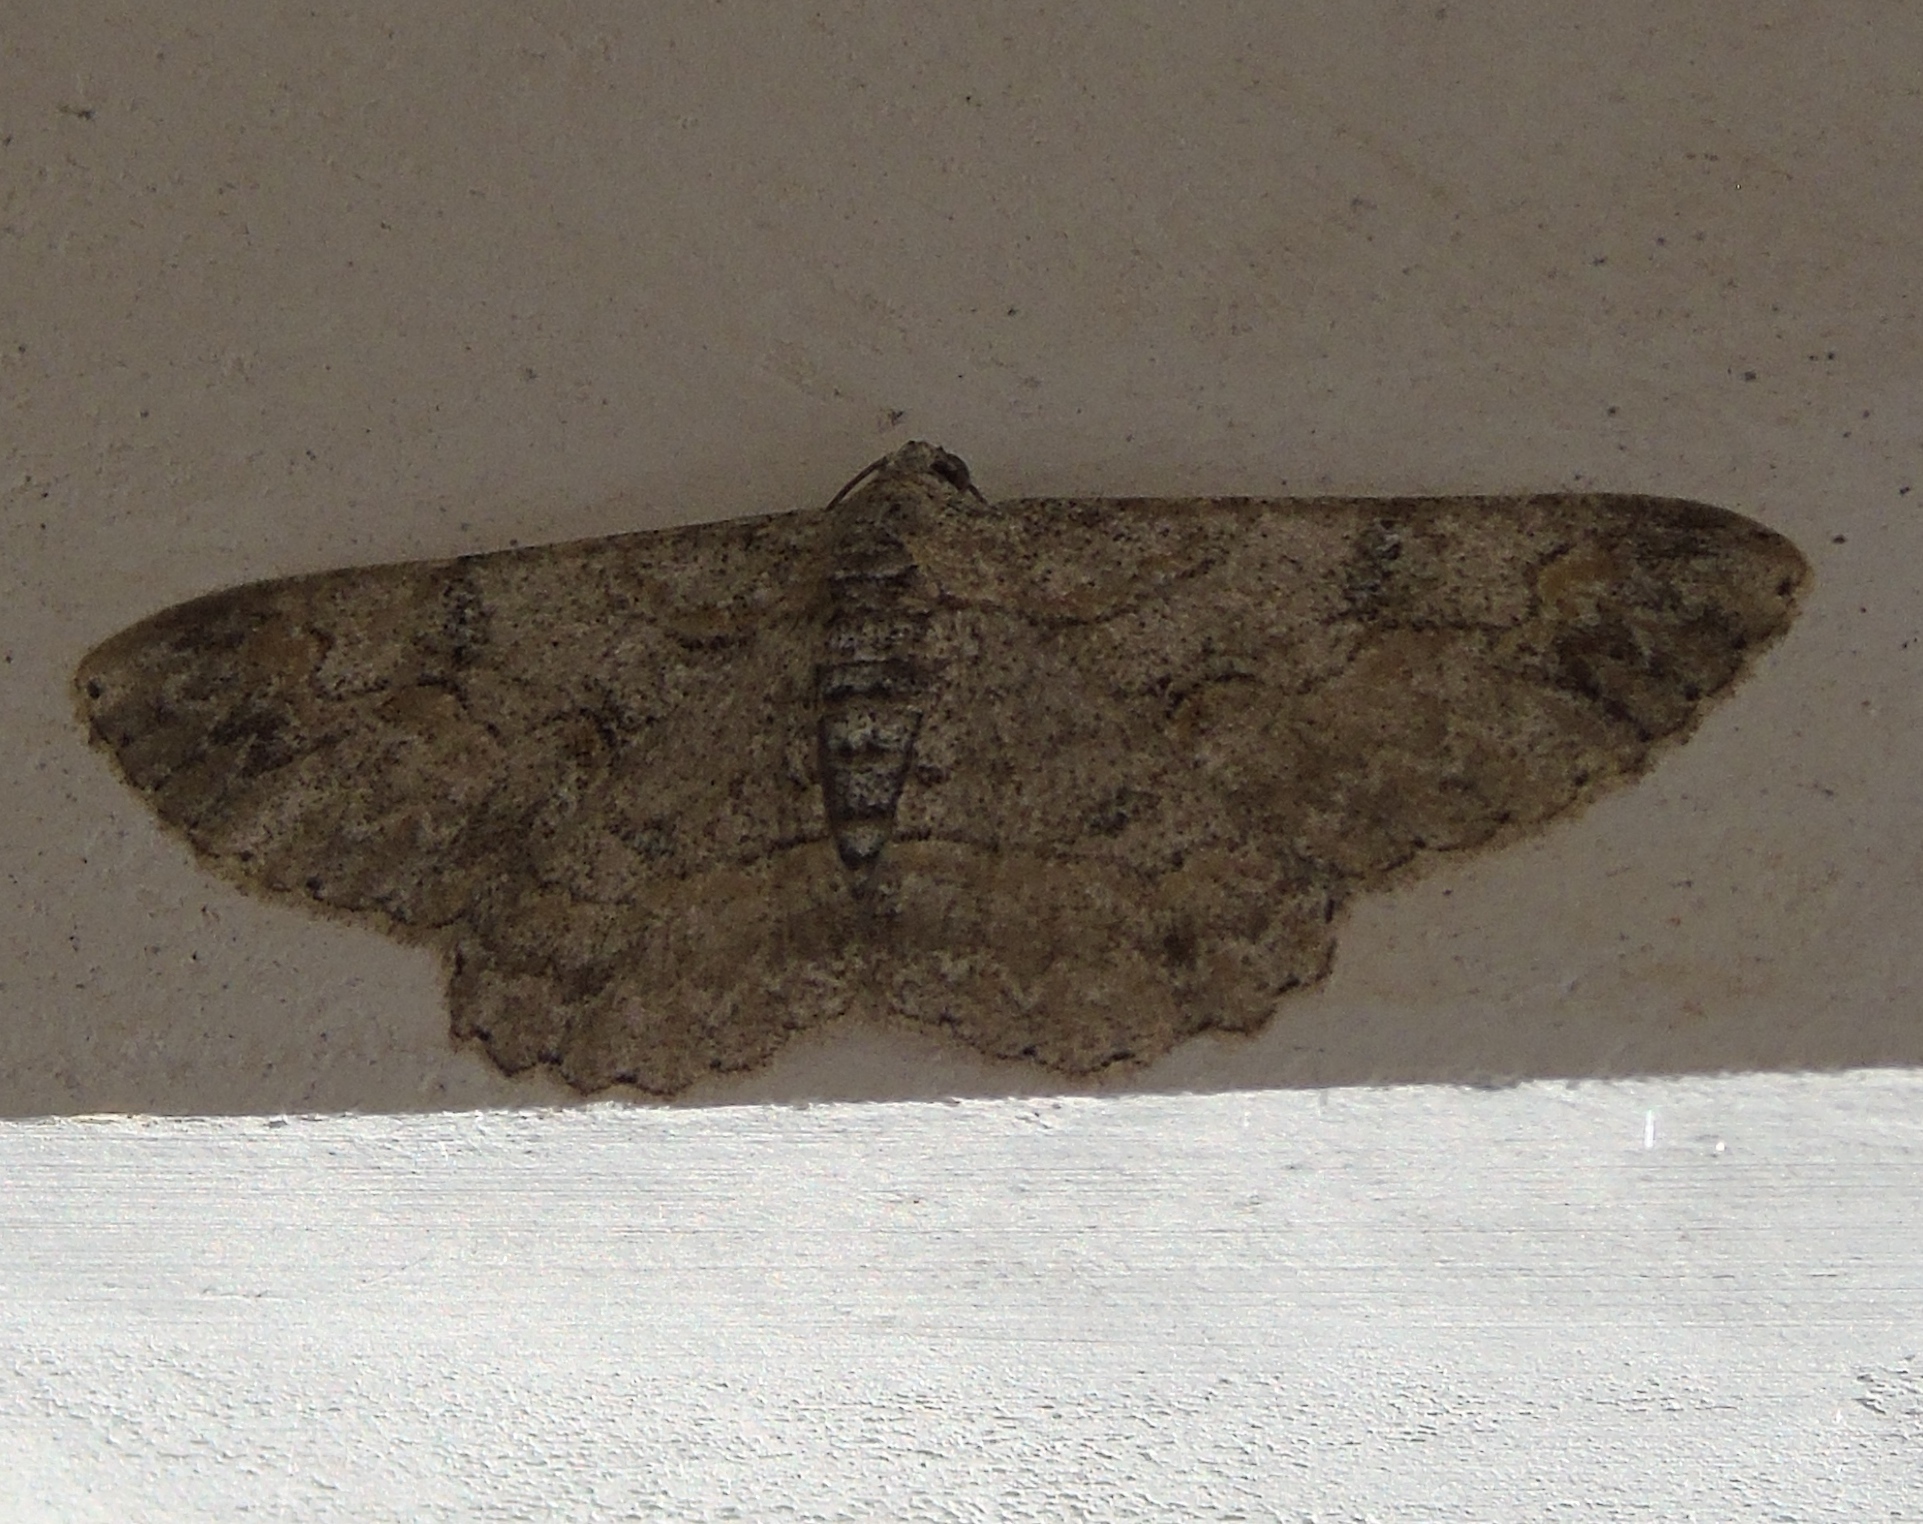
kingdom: Animalia
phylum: Arthropoda
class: Insecta
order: Lepidoptera
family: Geometridae
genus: Iridopsis
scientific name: Iridopsis
